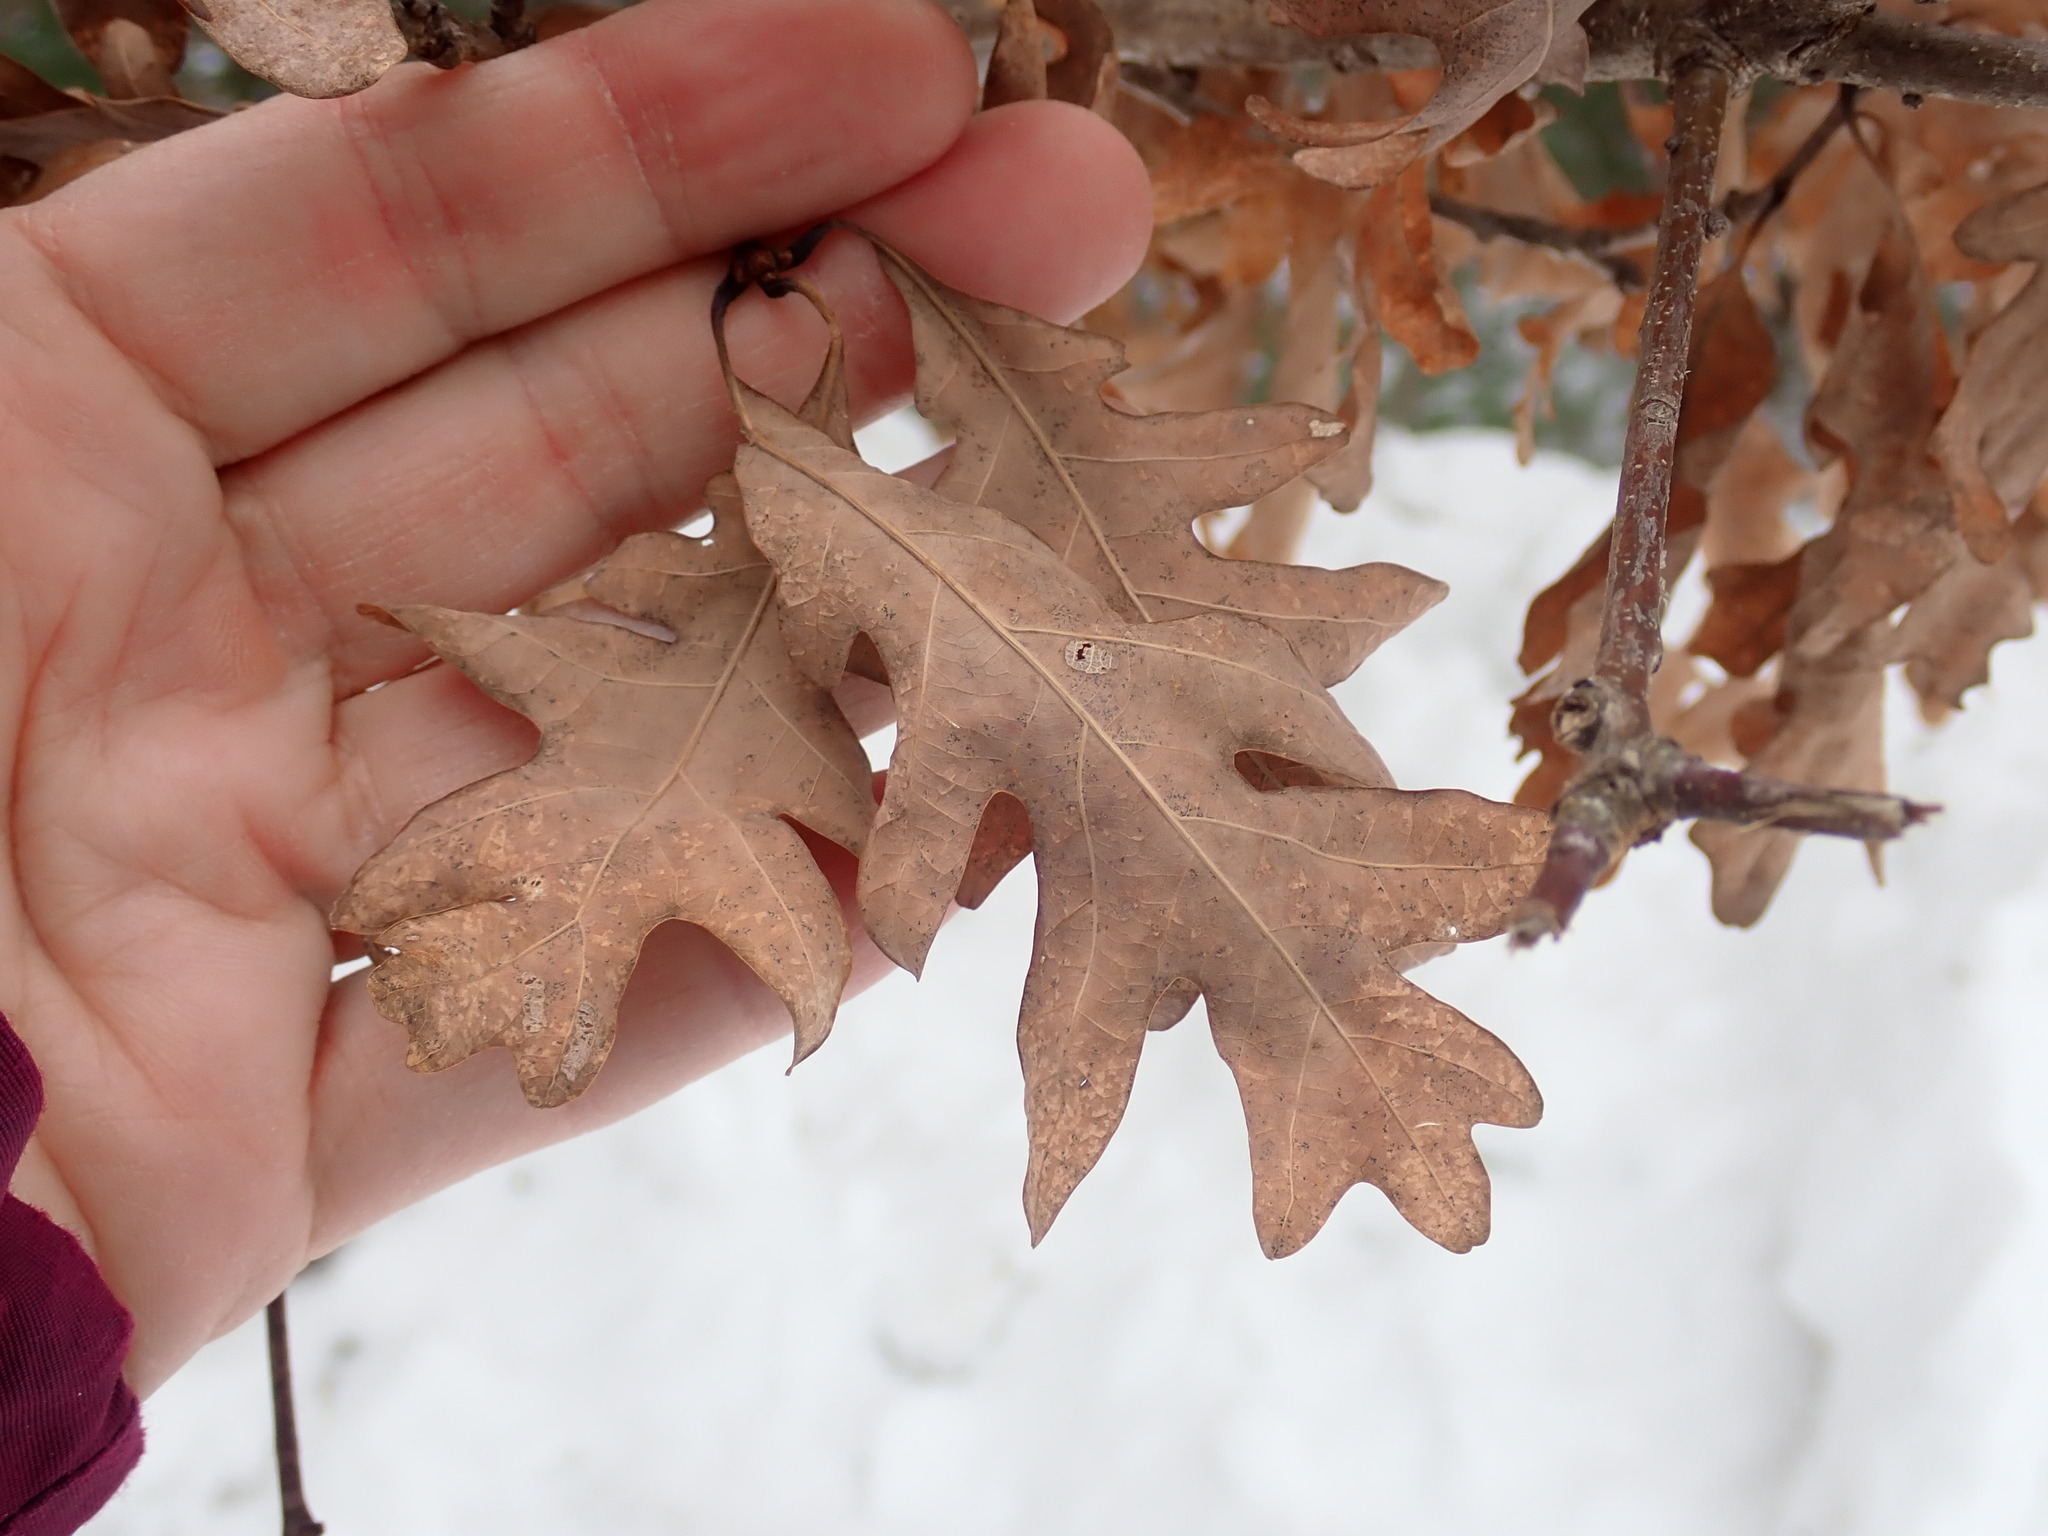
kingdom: Plantae
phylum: Tracheophyta
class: Magnoliopsida
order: Fagales
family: Fagaceae
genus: Quercus
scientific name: Quercus alba
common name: White oak
